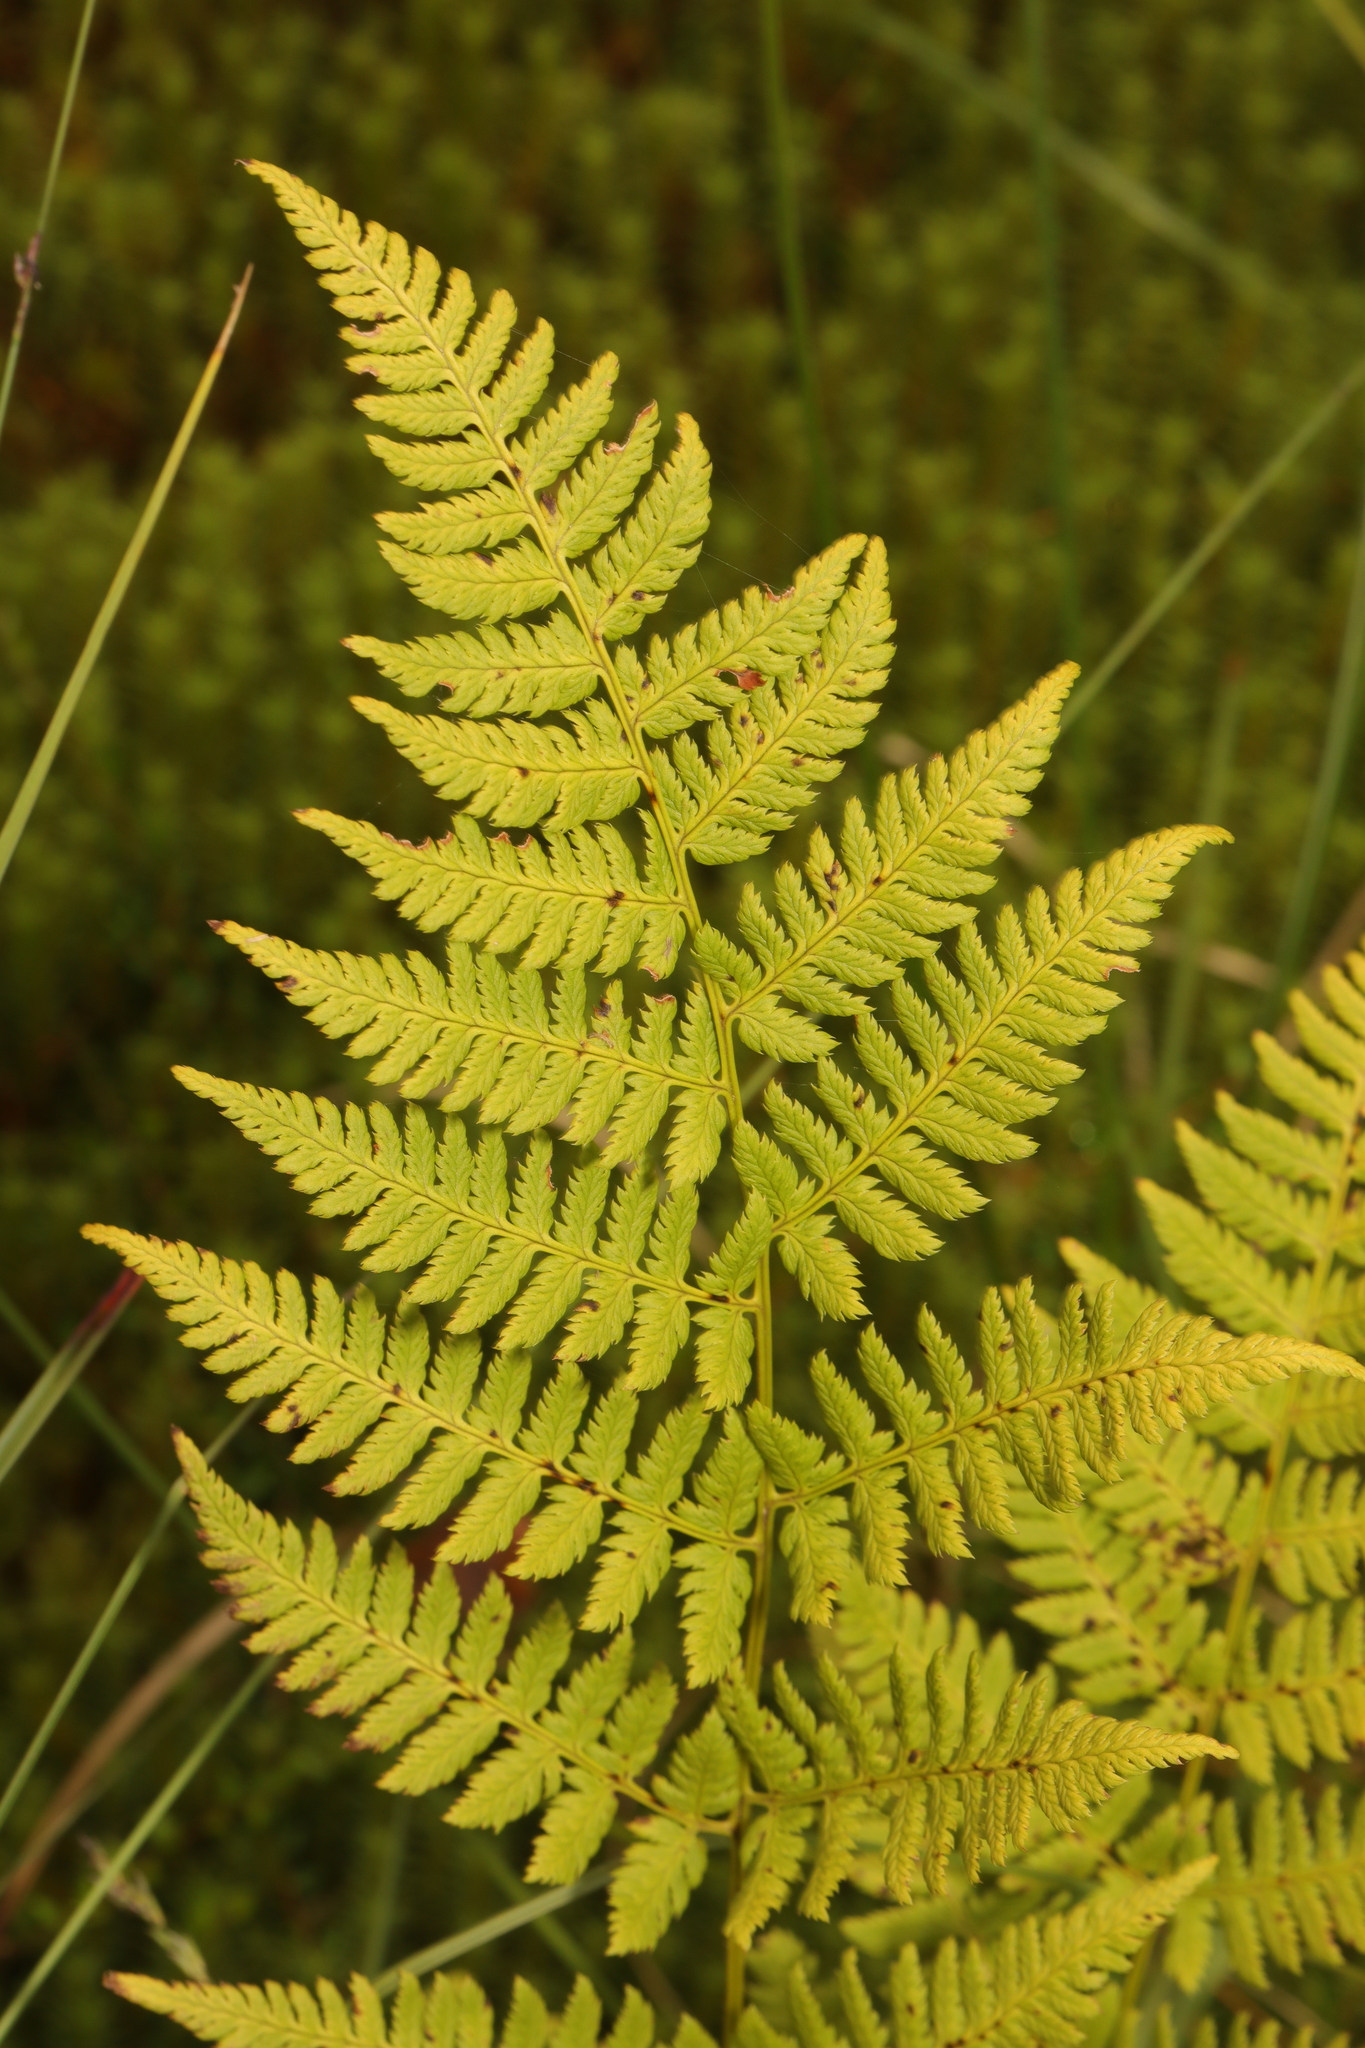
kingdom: Plantae
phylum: Tracheophyta
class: Polypodiopsida
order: Polypodiales
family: Dryopteridaceae
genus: Dryopteris
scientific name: Dryopteris carthusiana
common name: Narrow buckler-fern
